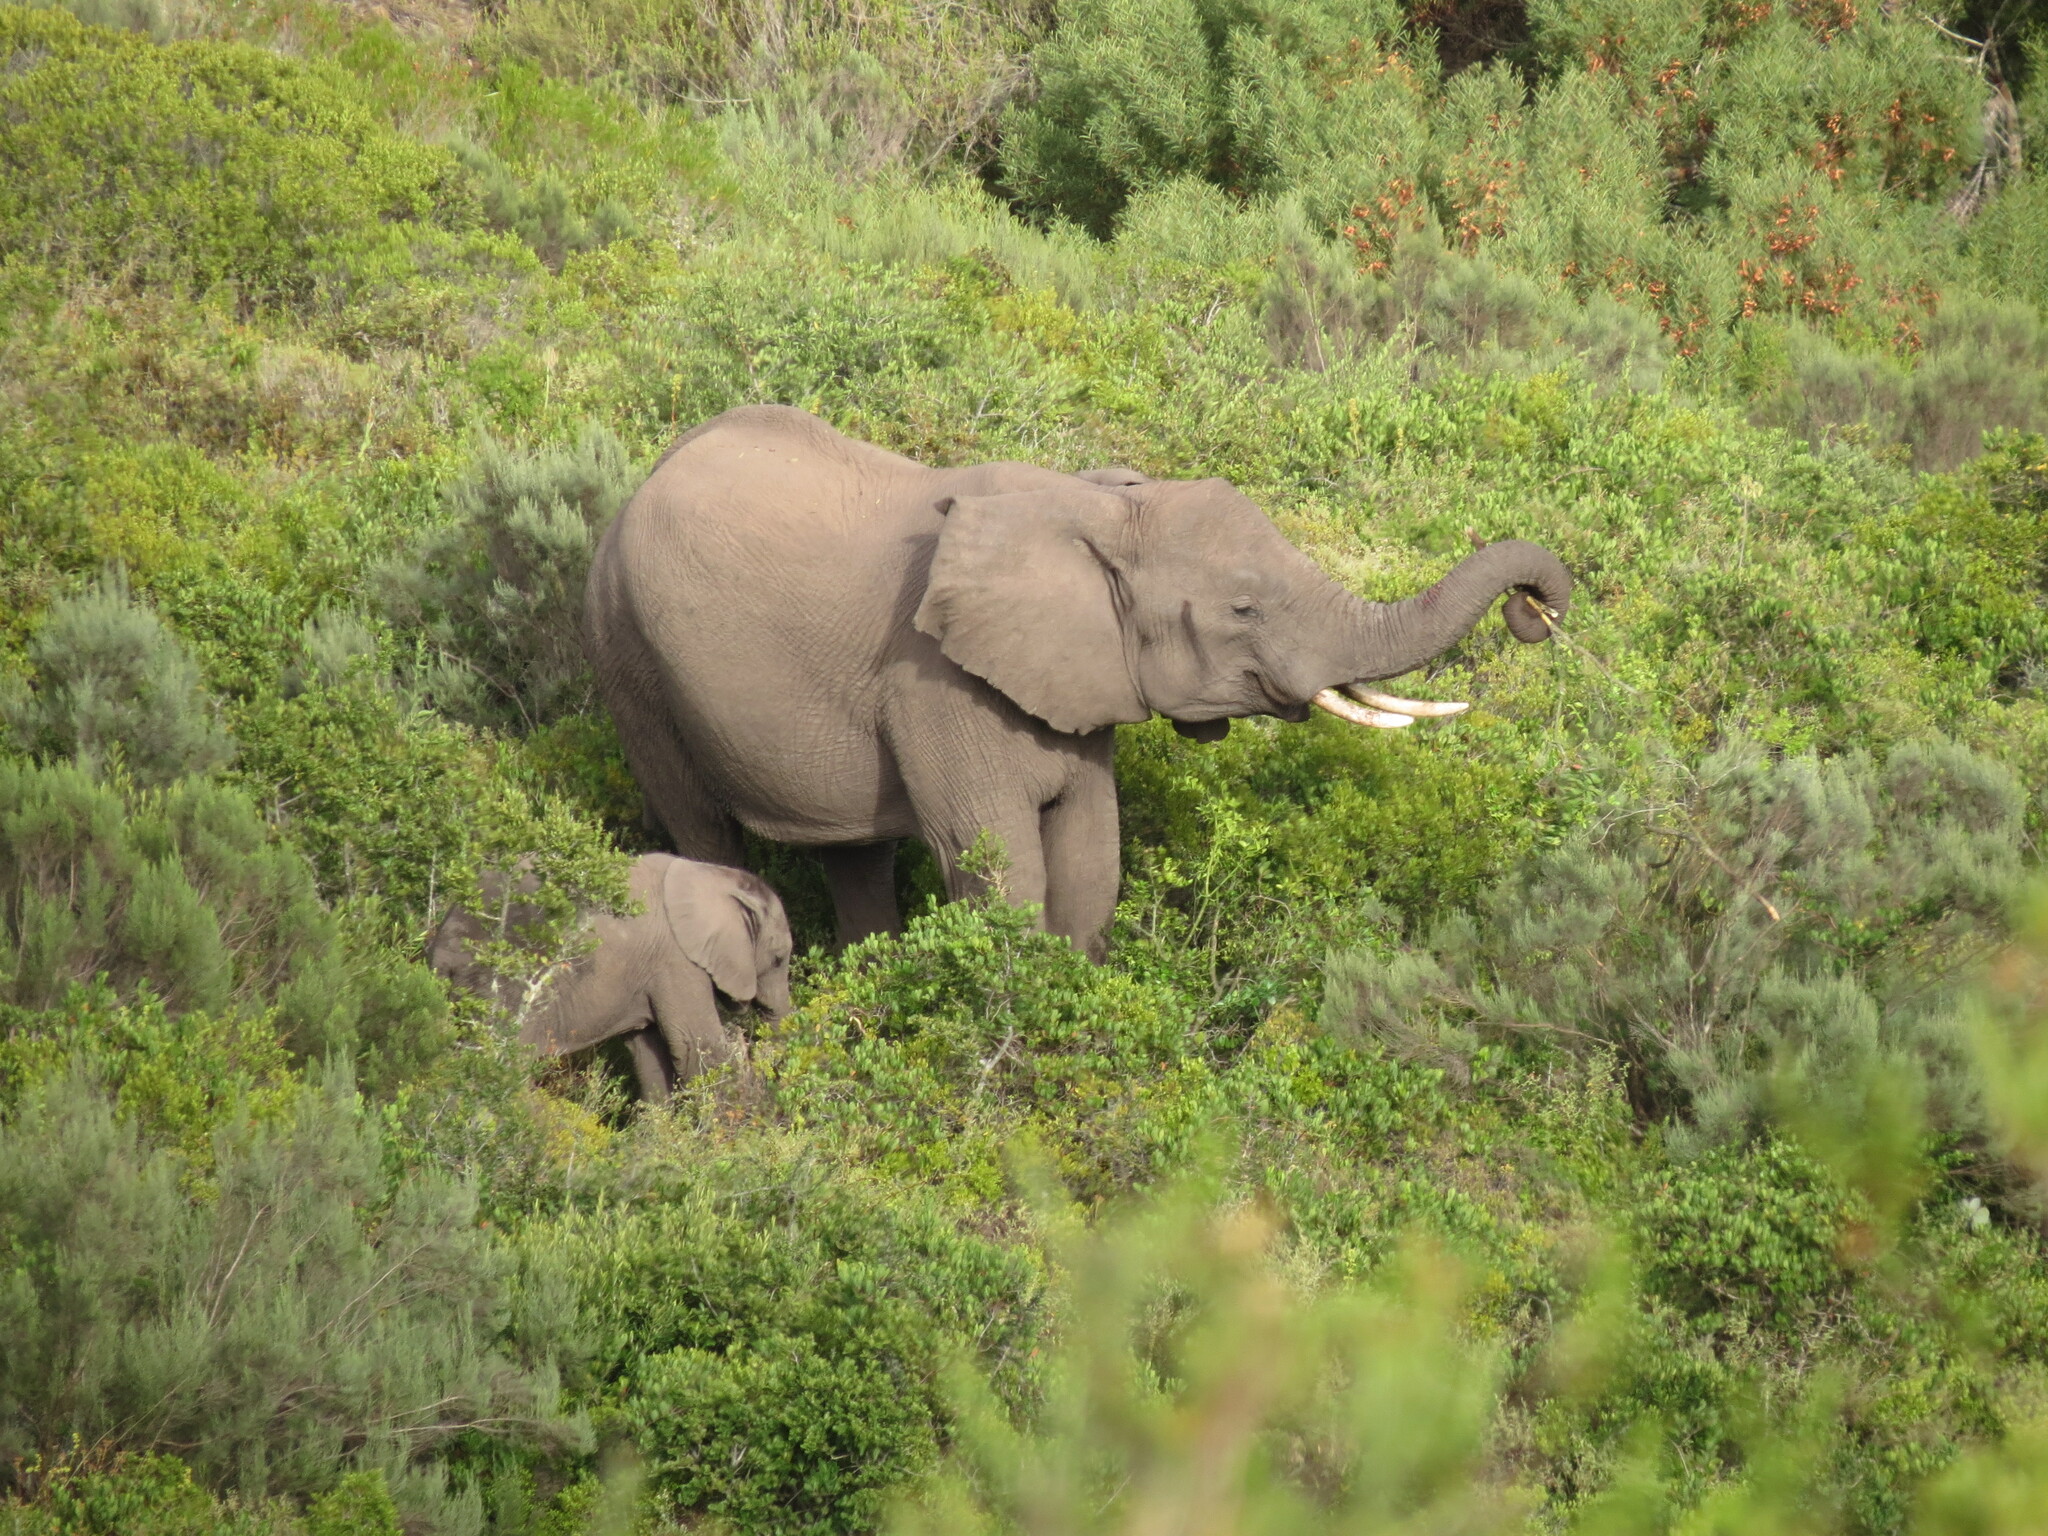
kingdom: Animalia
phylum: Chordata
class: Mammalia
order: Proboscidea
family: Elephantidae
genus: Loxodonta
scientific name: Loxodonta africana
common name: African elephant
